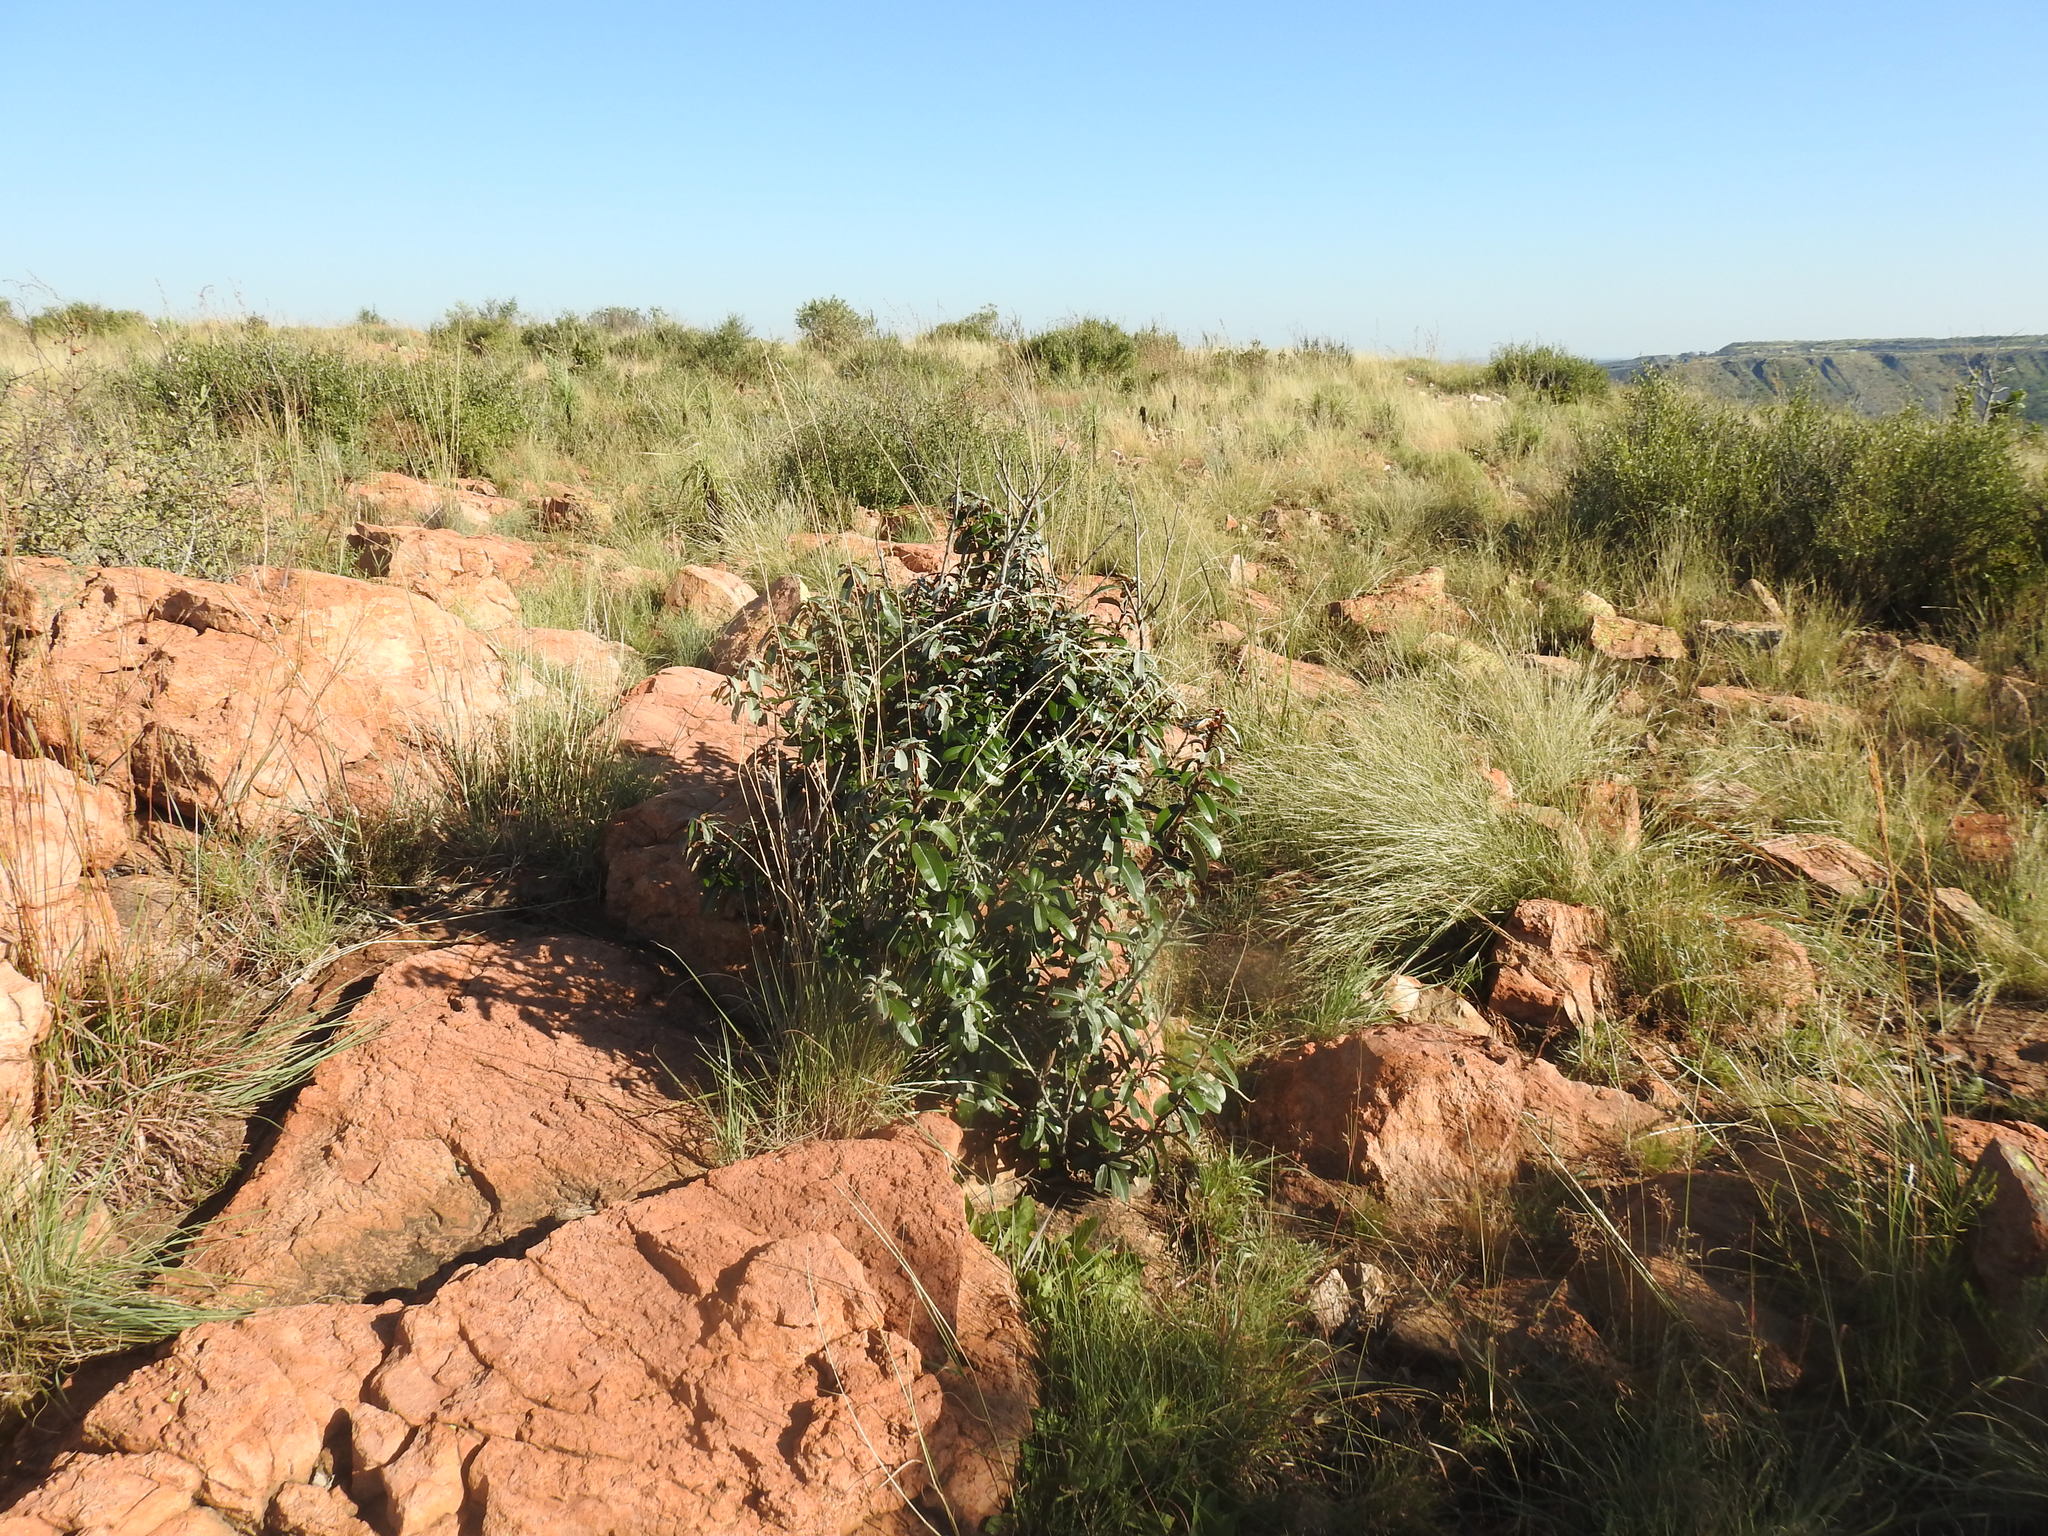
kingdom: Plantae
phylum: Tracheophyta
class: Magnoliopsida
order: Ericales
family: Sapotaceae
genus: Englerophytum
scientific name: Englerophytum magalismontanum
